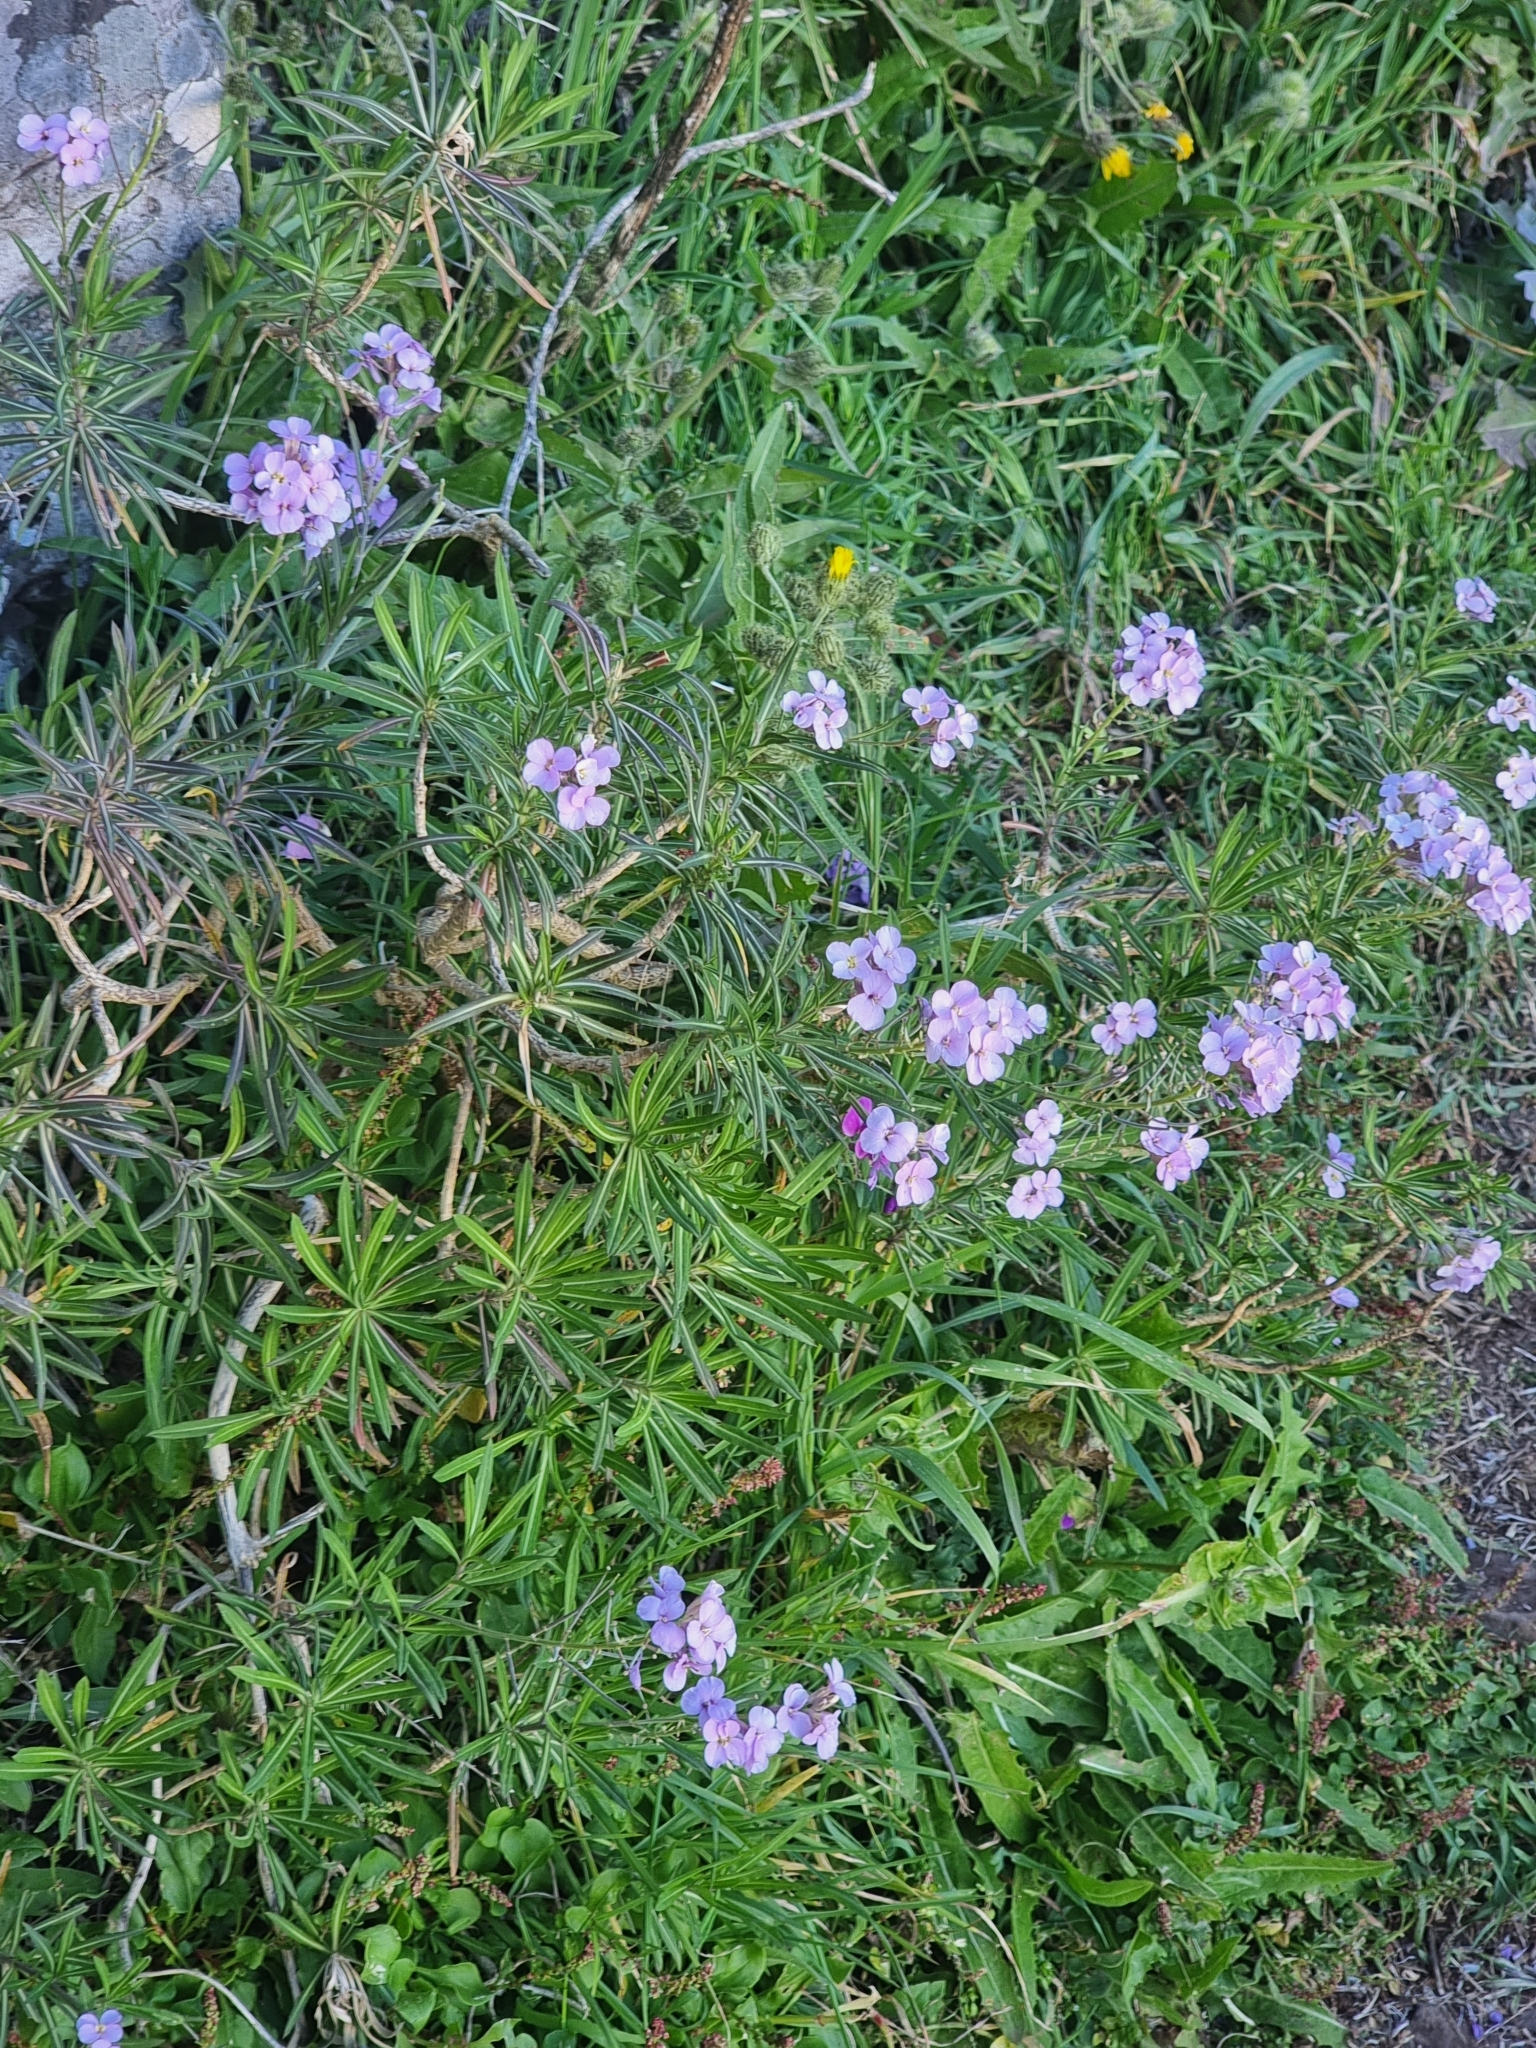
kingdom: Plantae
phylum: Tracheophyta
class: Magnoliopsida
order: Brassicales
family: Brassicaceae
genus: Erysimum
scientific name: Erysimum bicolor
